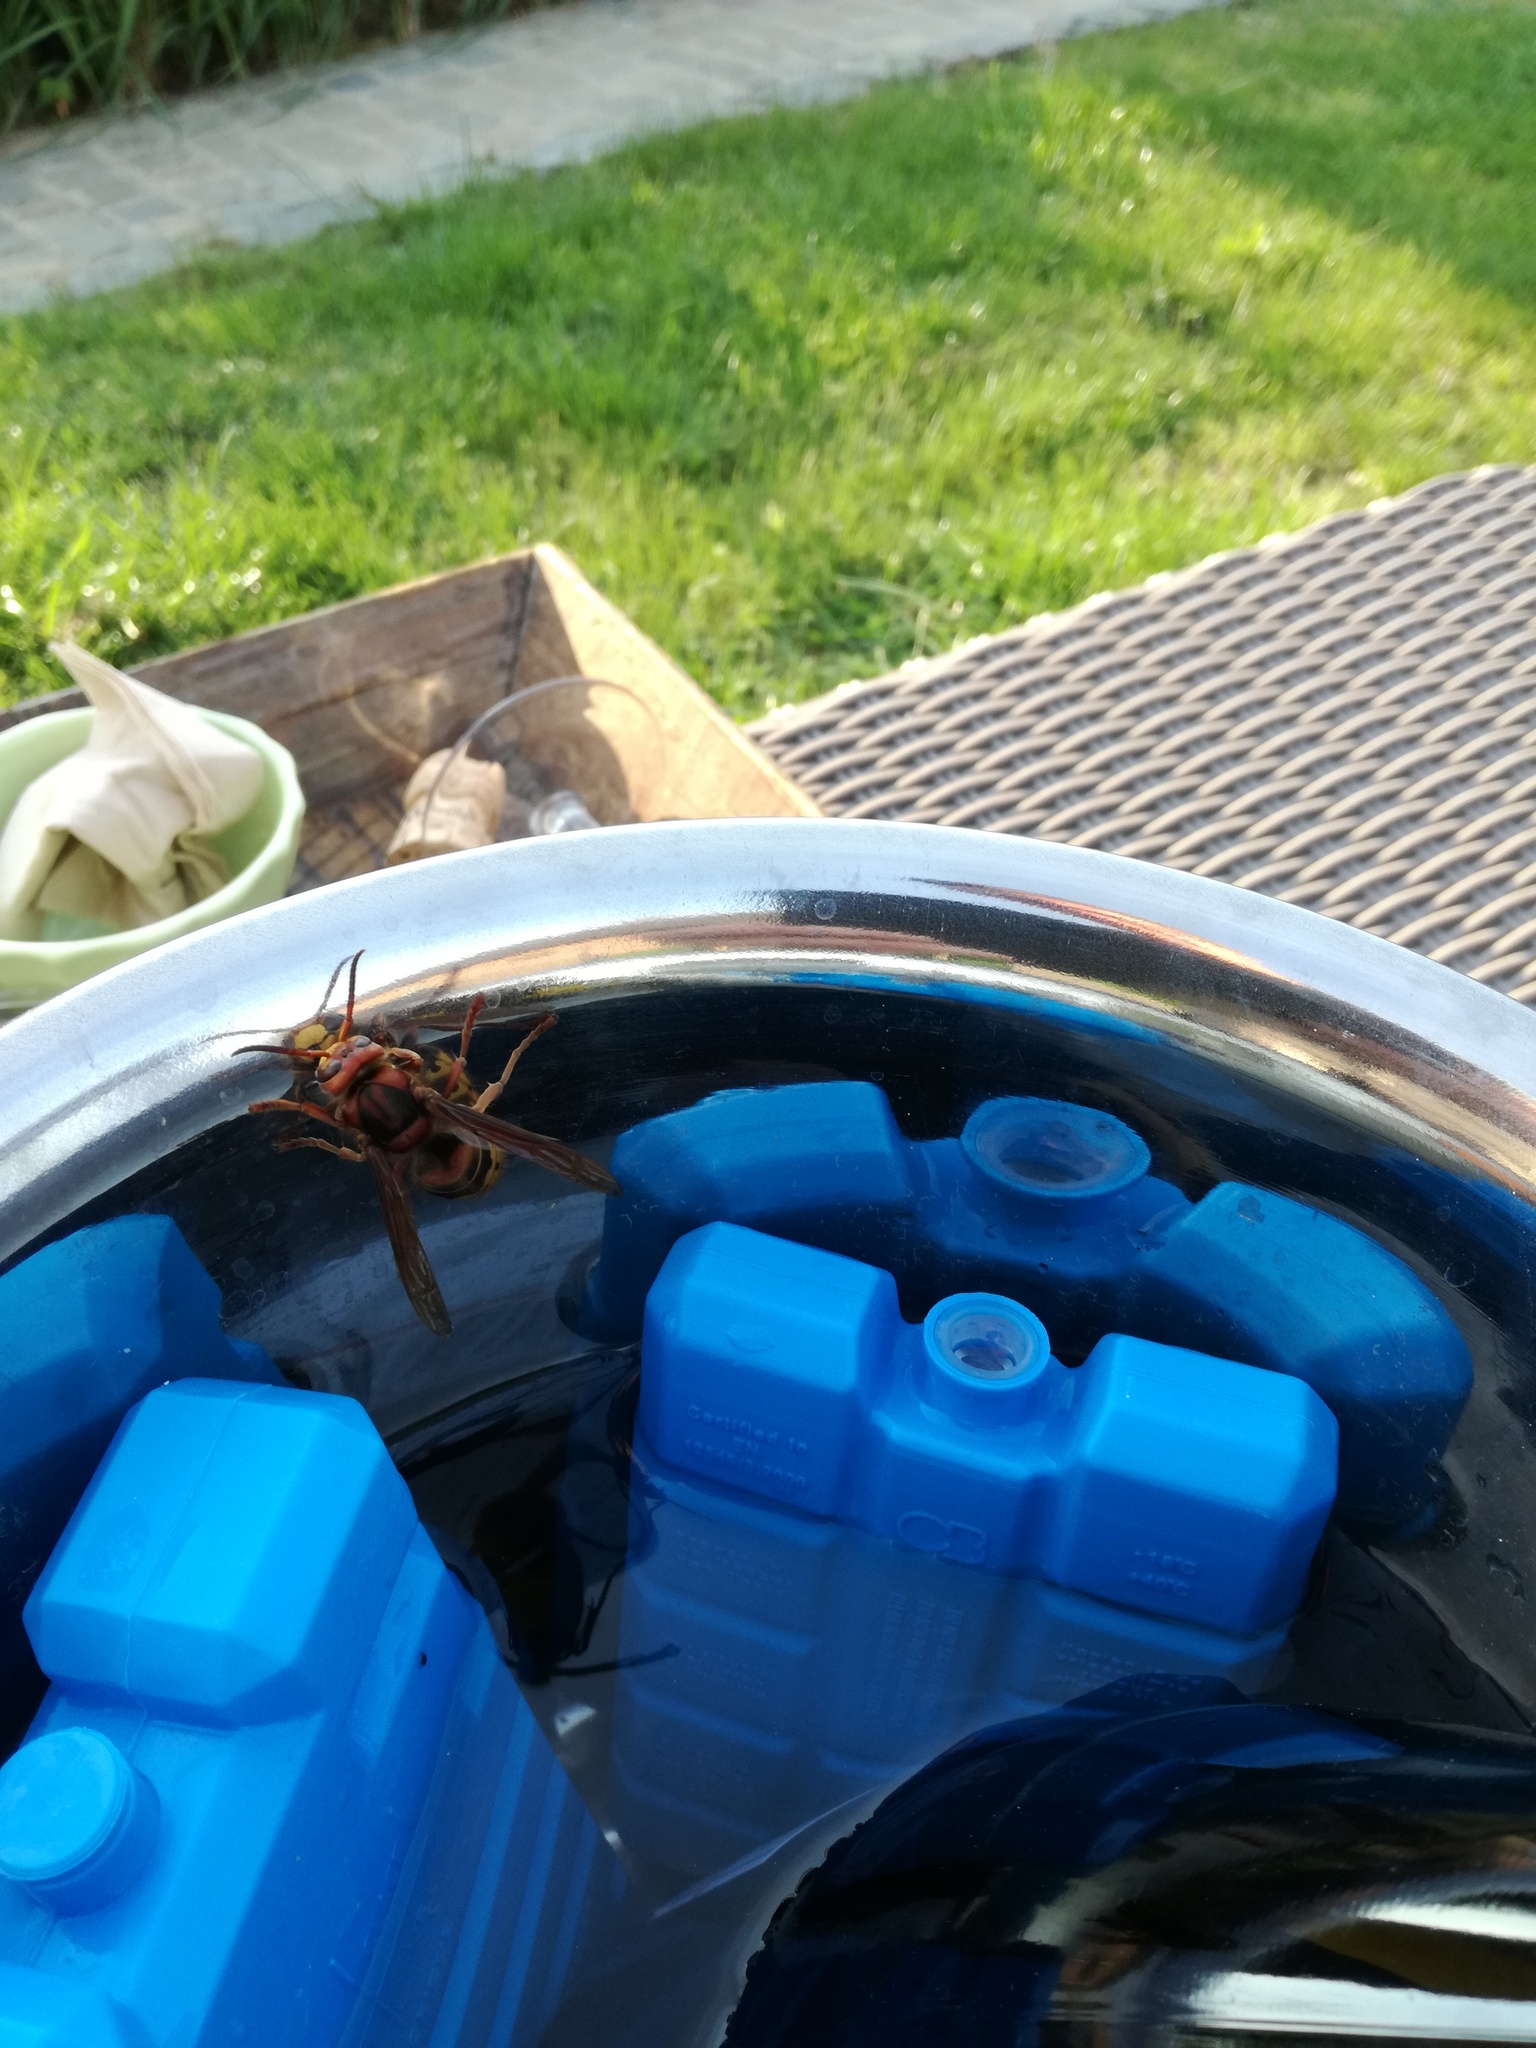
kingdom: Animalia
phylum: Arthropoda
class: Insecta
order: Hymenoptera
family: Vespidae
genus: Vespa
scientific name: Vespa crabro
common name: Hornet
